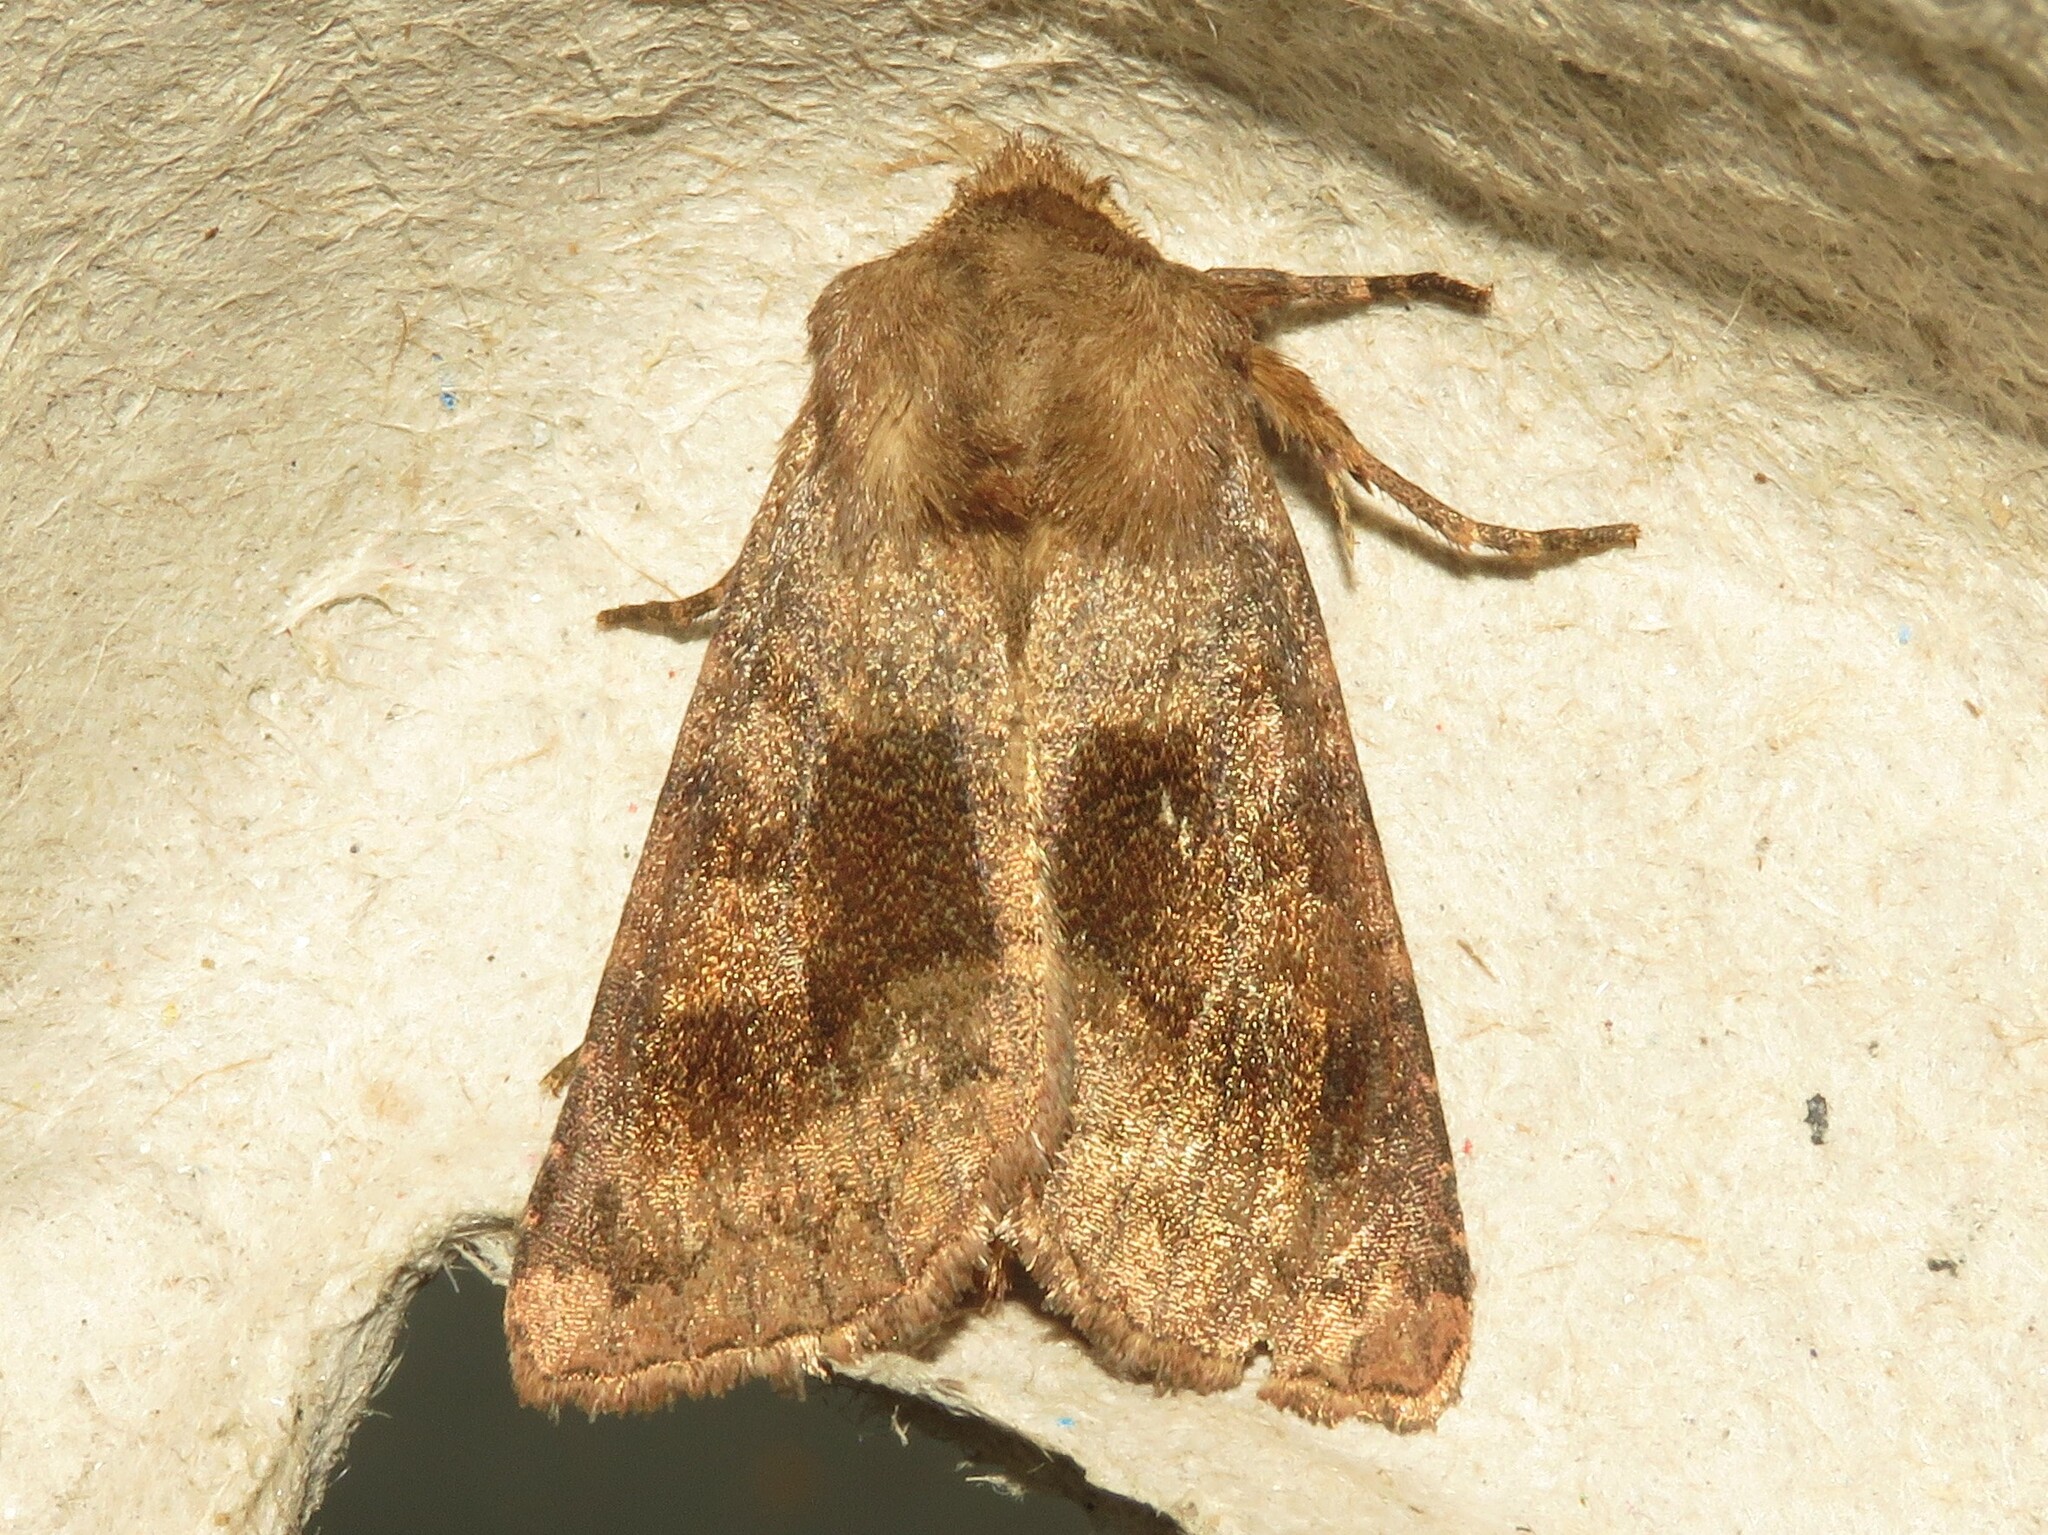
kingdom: Animalia
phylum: Arthropoda
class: Insecta
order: Lepidoptera
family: Noctuidae
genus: Nephelodes
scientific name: Nephelodes minians
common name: Bronzed cutworm
